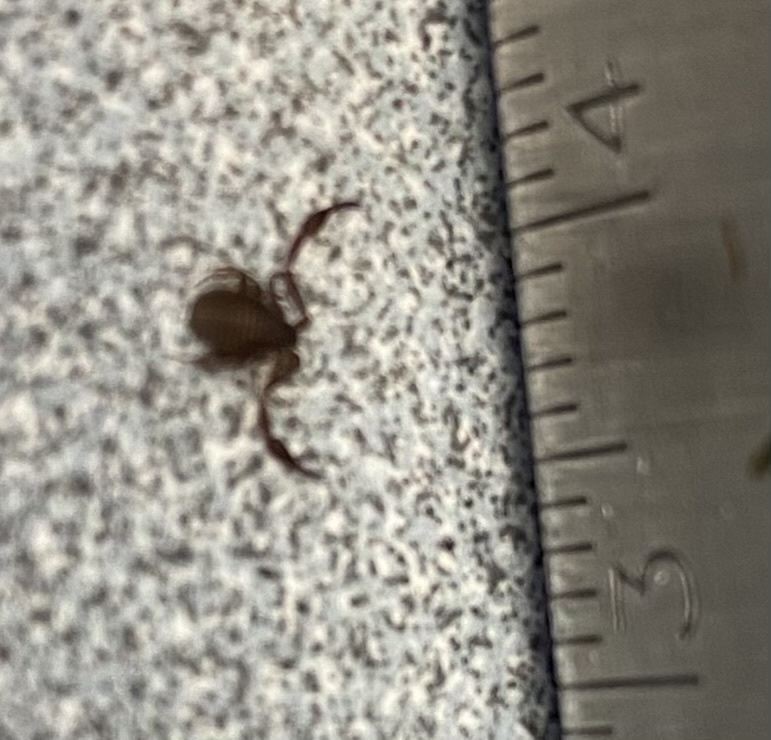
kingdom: Animalia
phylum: Arthropoda
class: Arachnida
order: Pseudoscorpiones
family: Cheliferidae
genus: Chelifer
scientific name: Chelifer cancroides
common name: House false-scorpion
